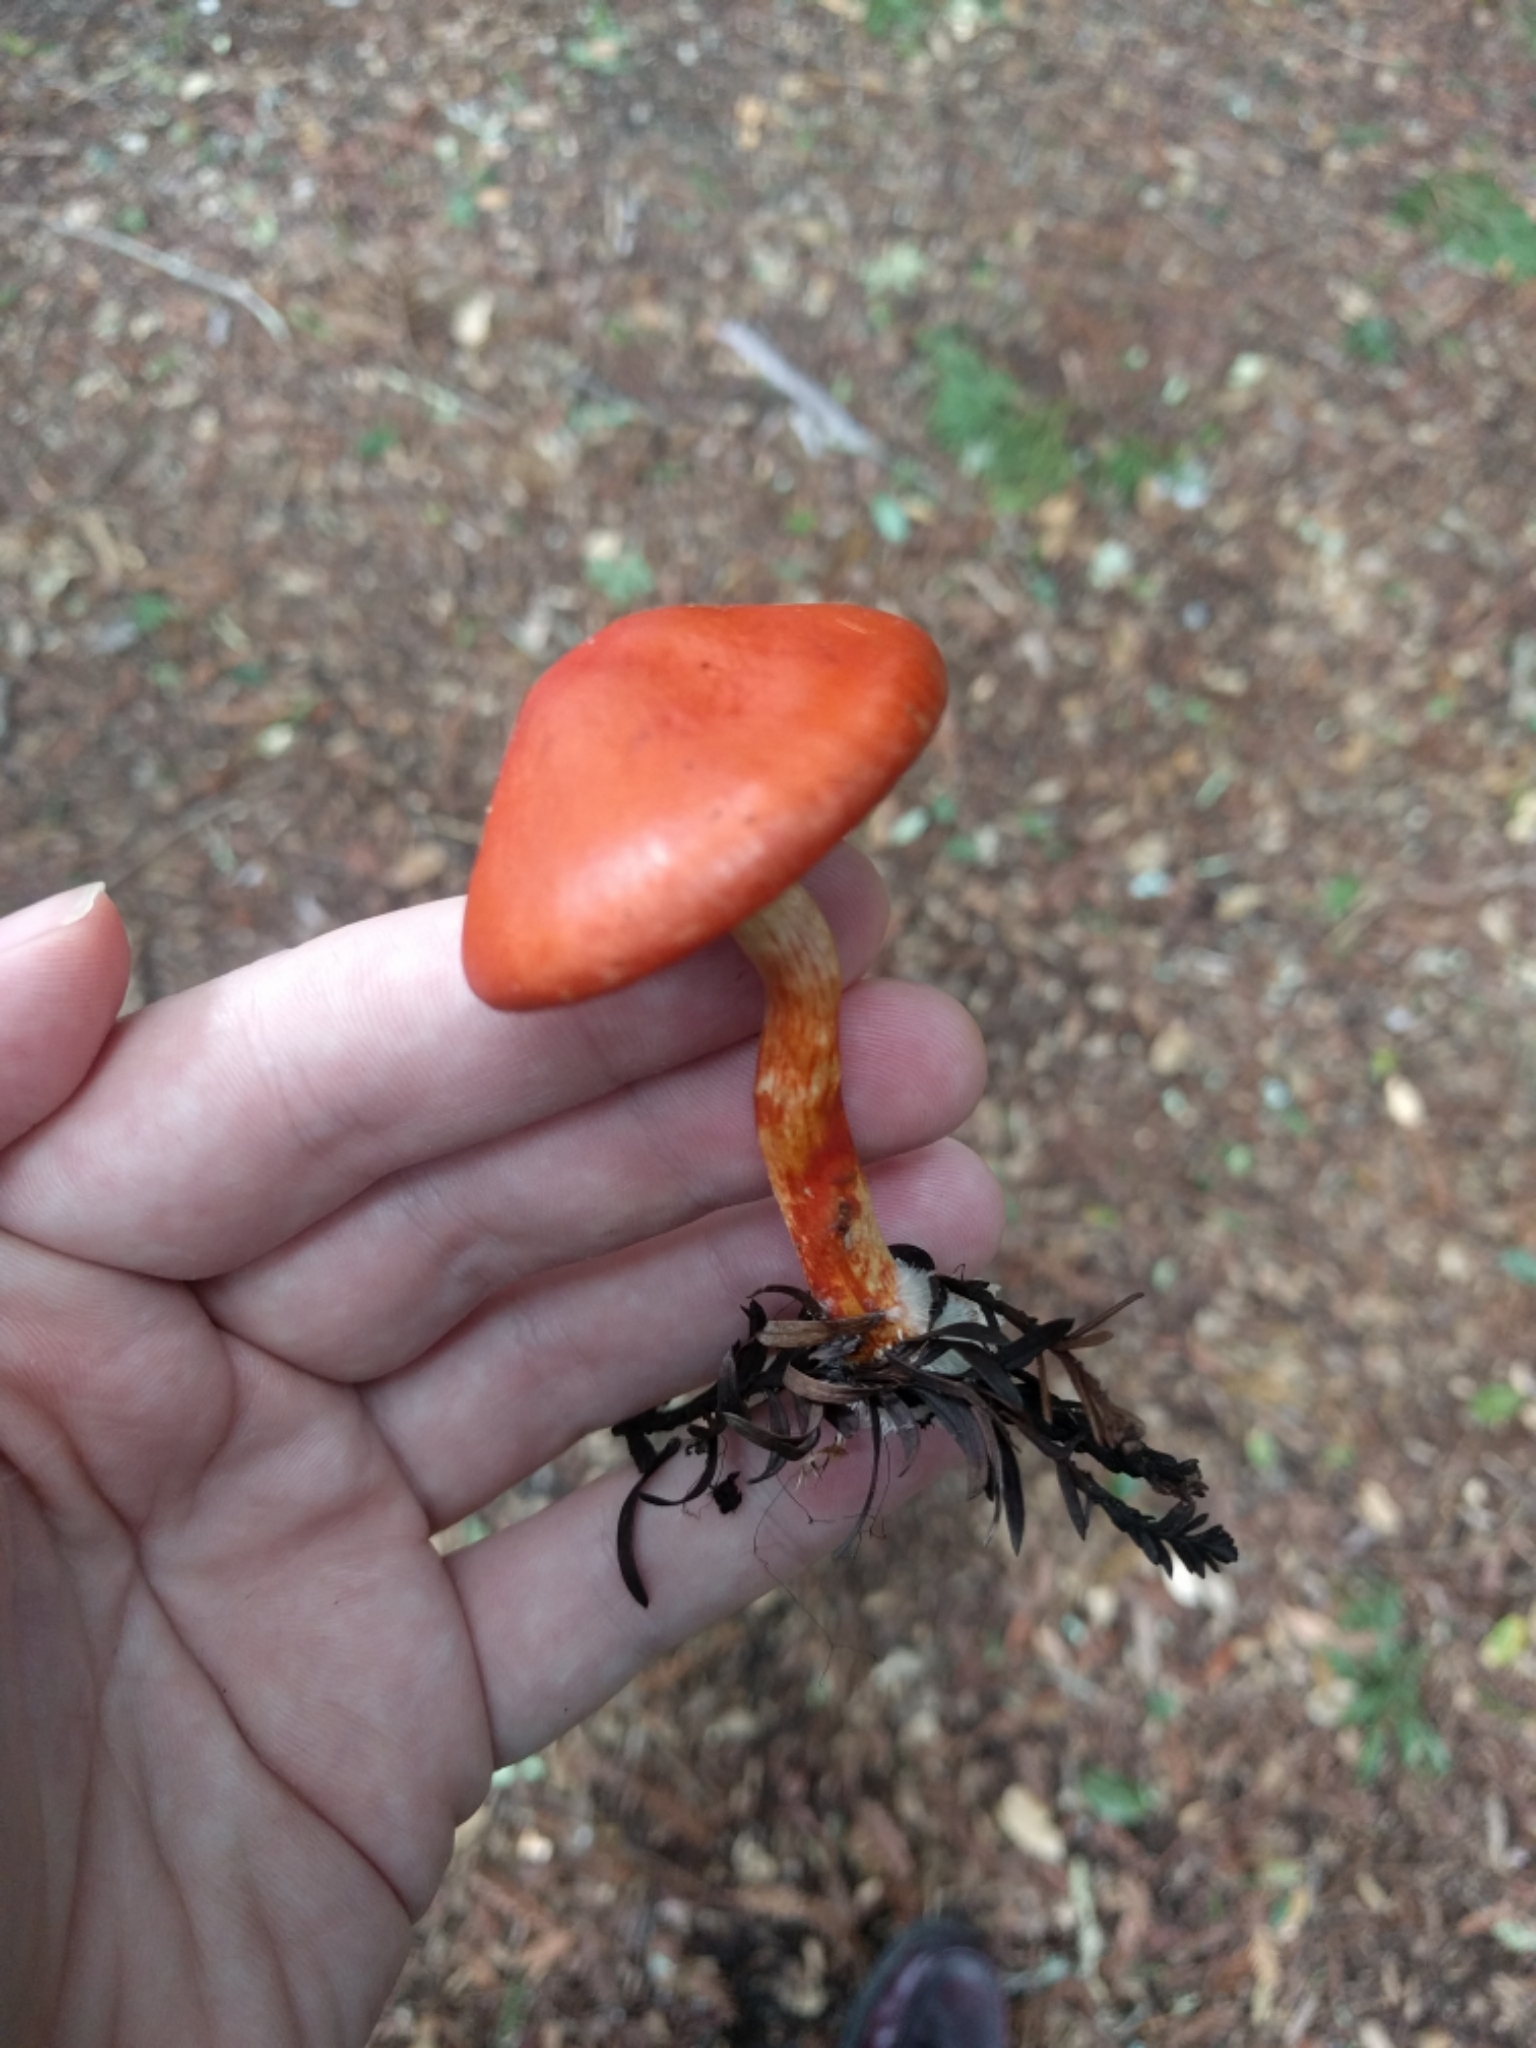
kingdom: Fungi
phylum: Basidiomycota
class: Agaricomycetes
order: Agaricales
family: Strophariaceae
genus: Leratiomyces
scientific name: Leratiomyces ceres
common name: Redlead roundhead
